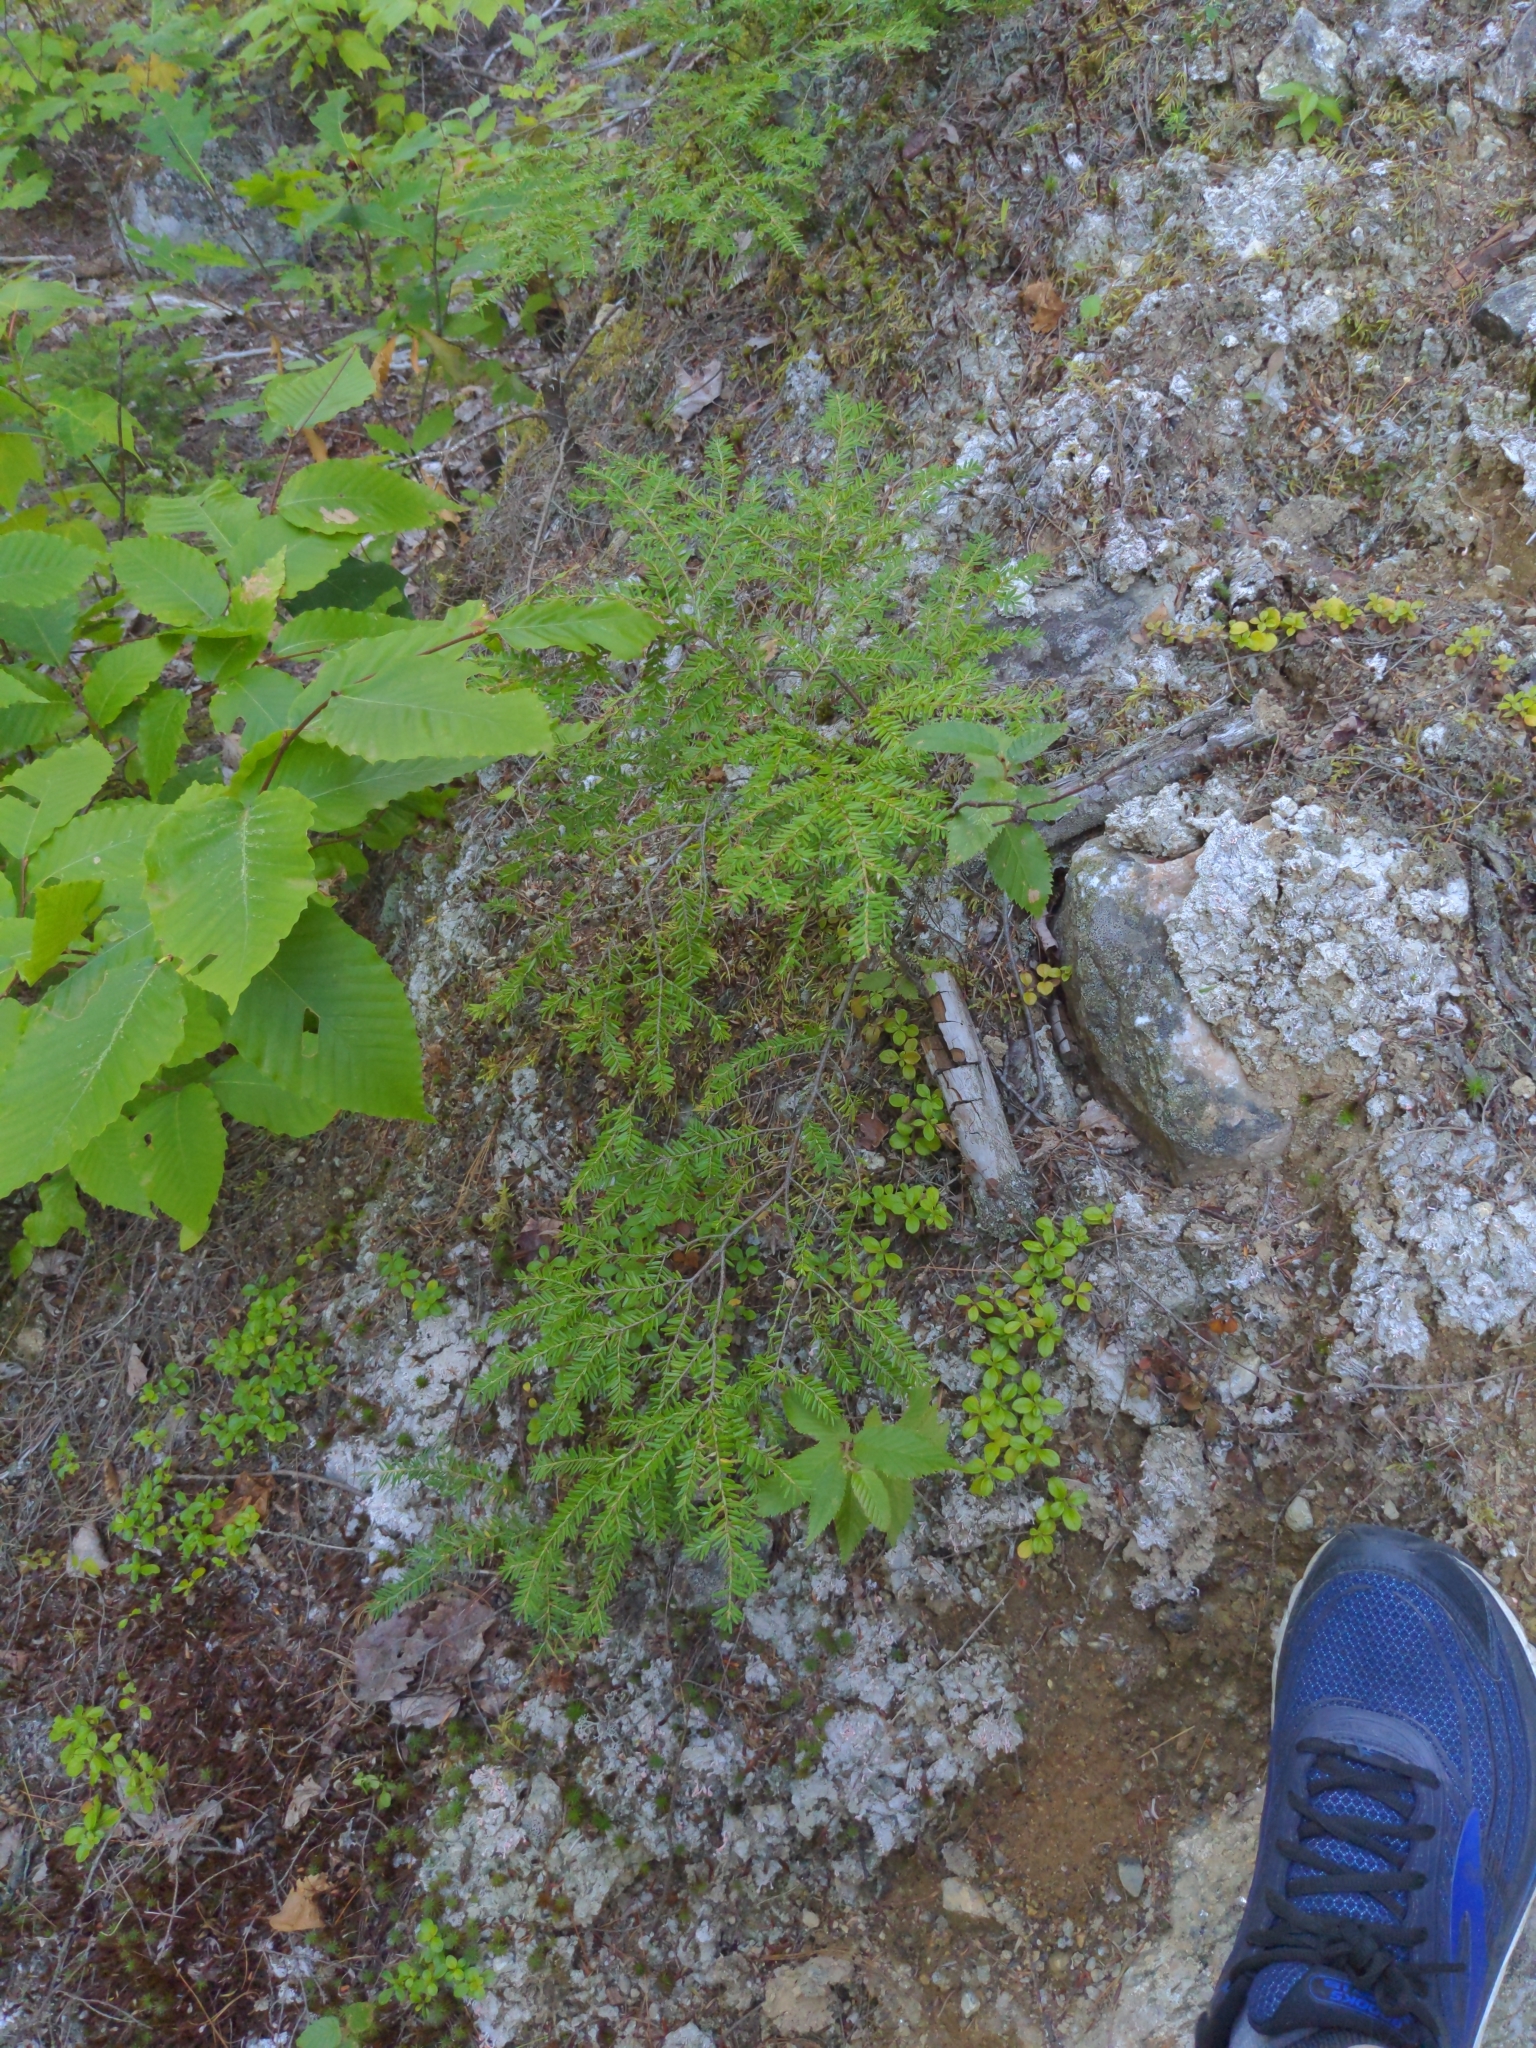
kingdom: Plantae
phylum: Tracheophyta
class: Pinopsida
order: Pinales
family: Pinaceae
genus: Tsuga
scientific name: Tsuga canadensis
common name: Eastern hemlock
